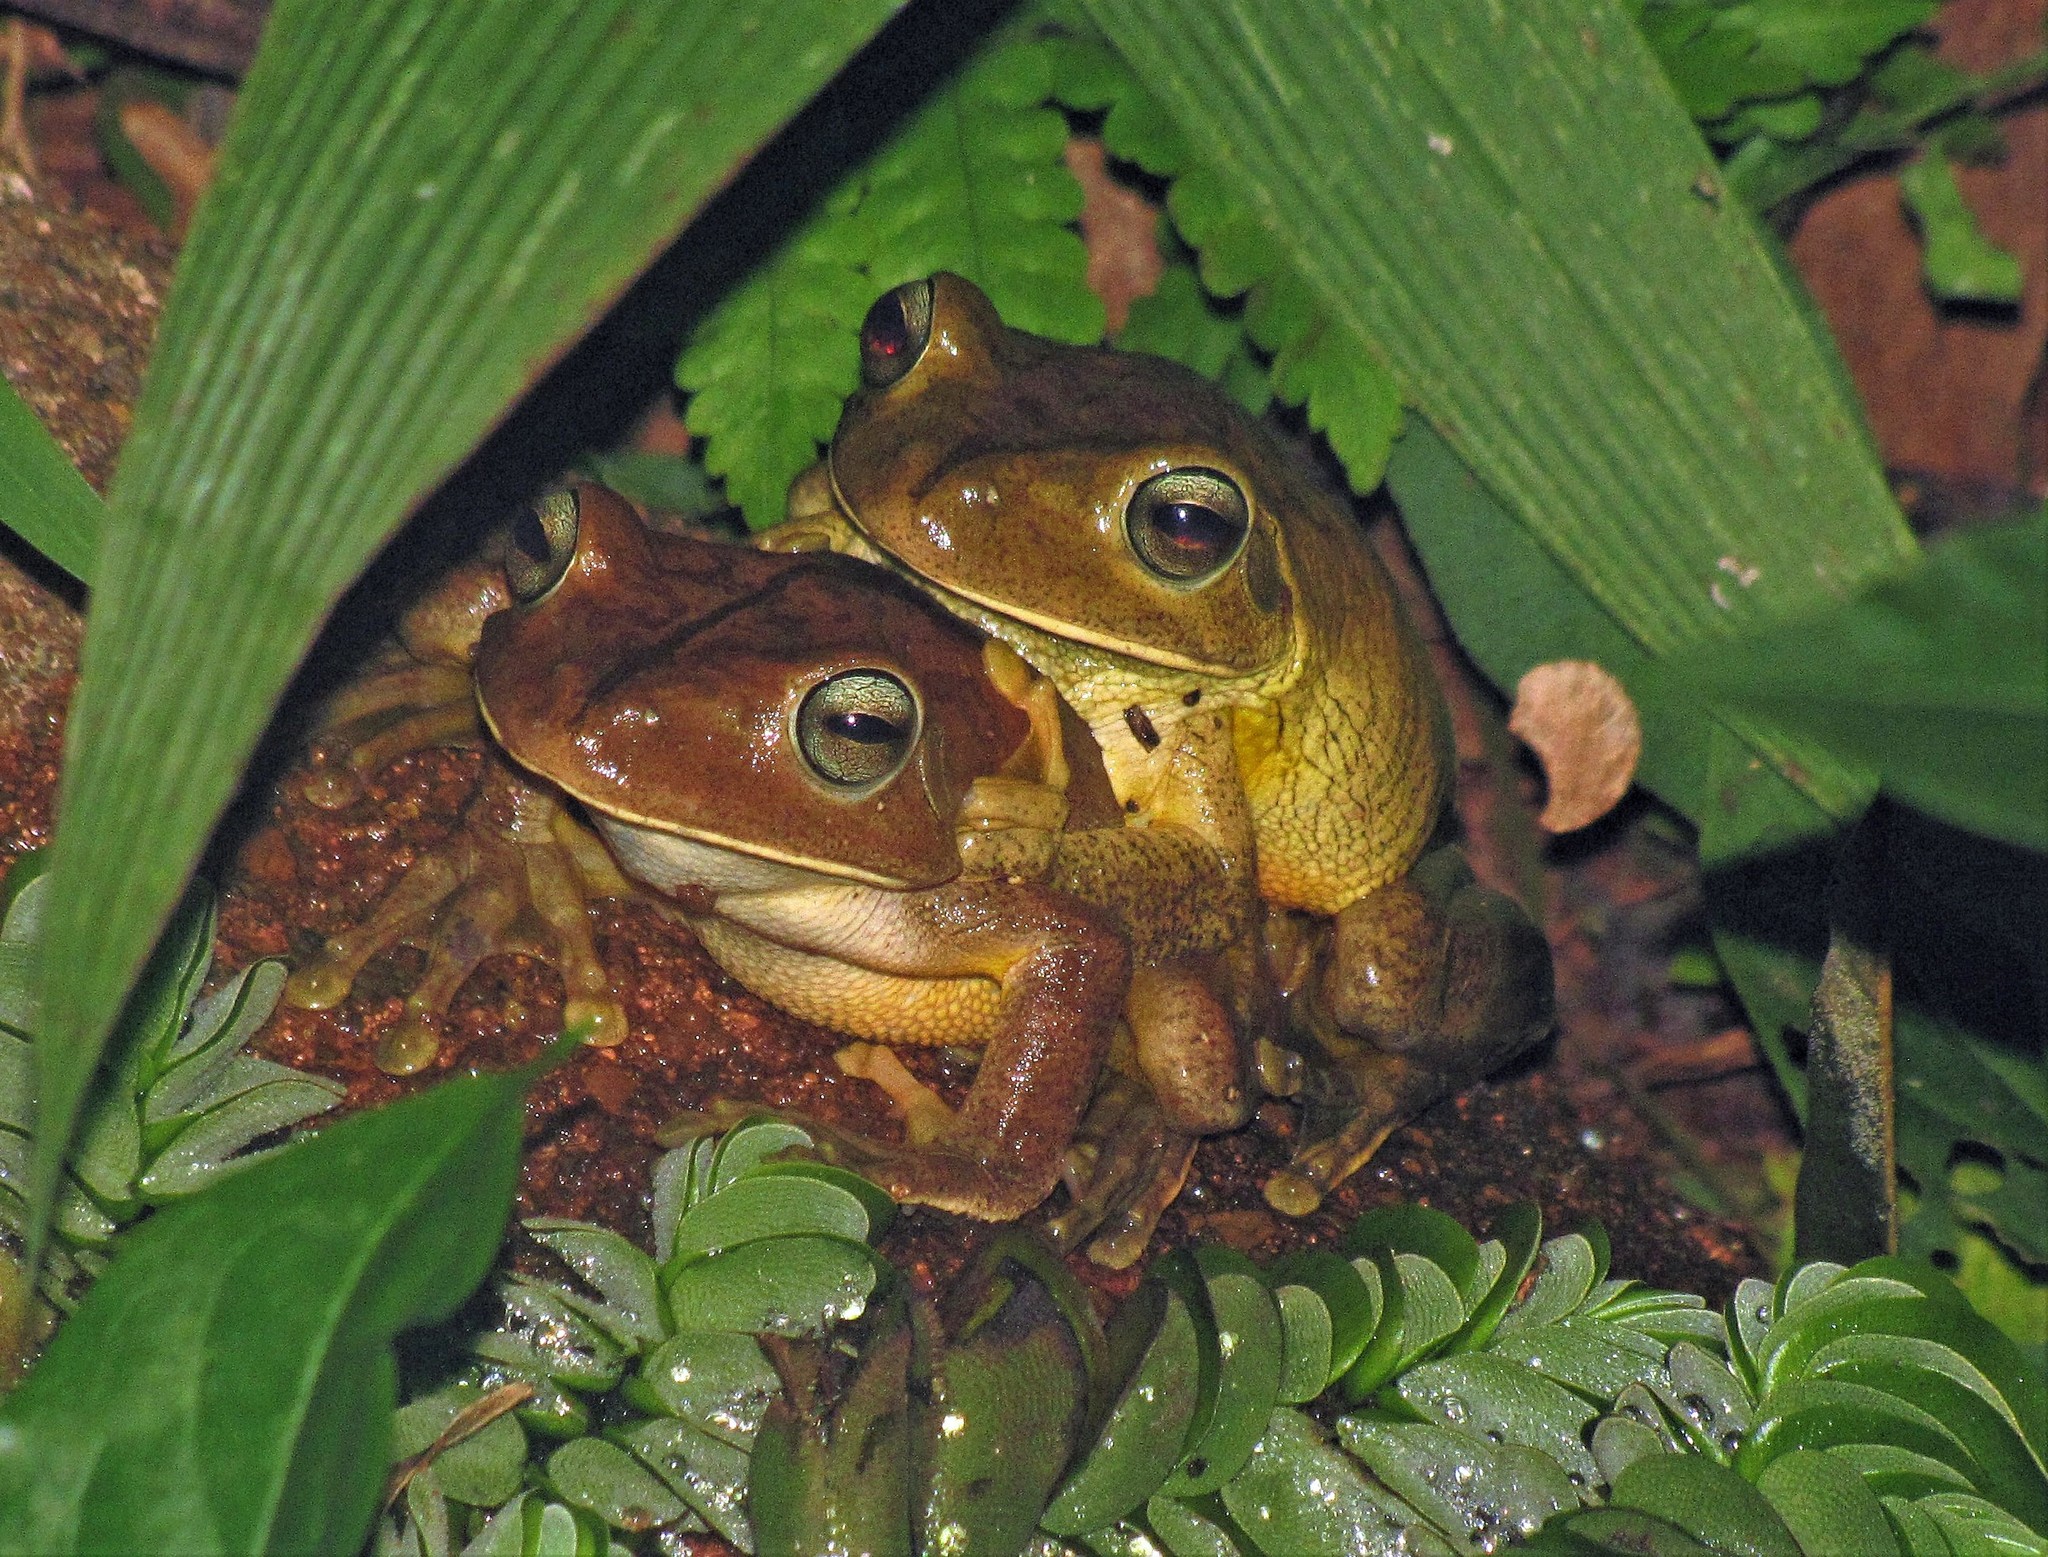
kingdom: Animalia
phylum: Chordata
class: Amphibia
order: Anura
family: Hylidae
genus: Boana
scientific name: Boana faber
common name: Blacksmith tree frog
